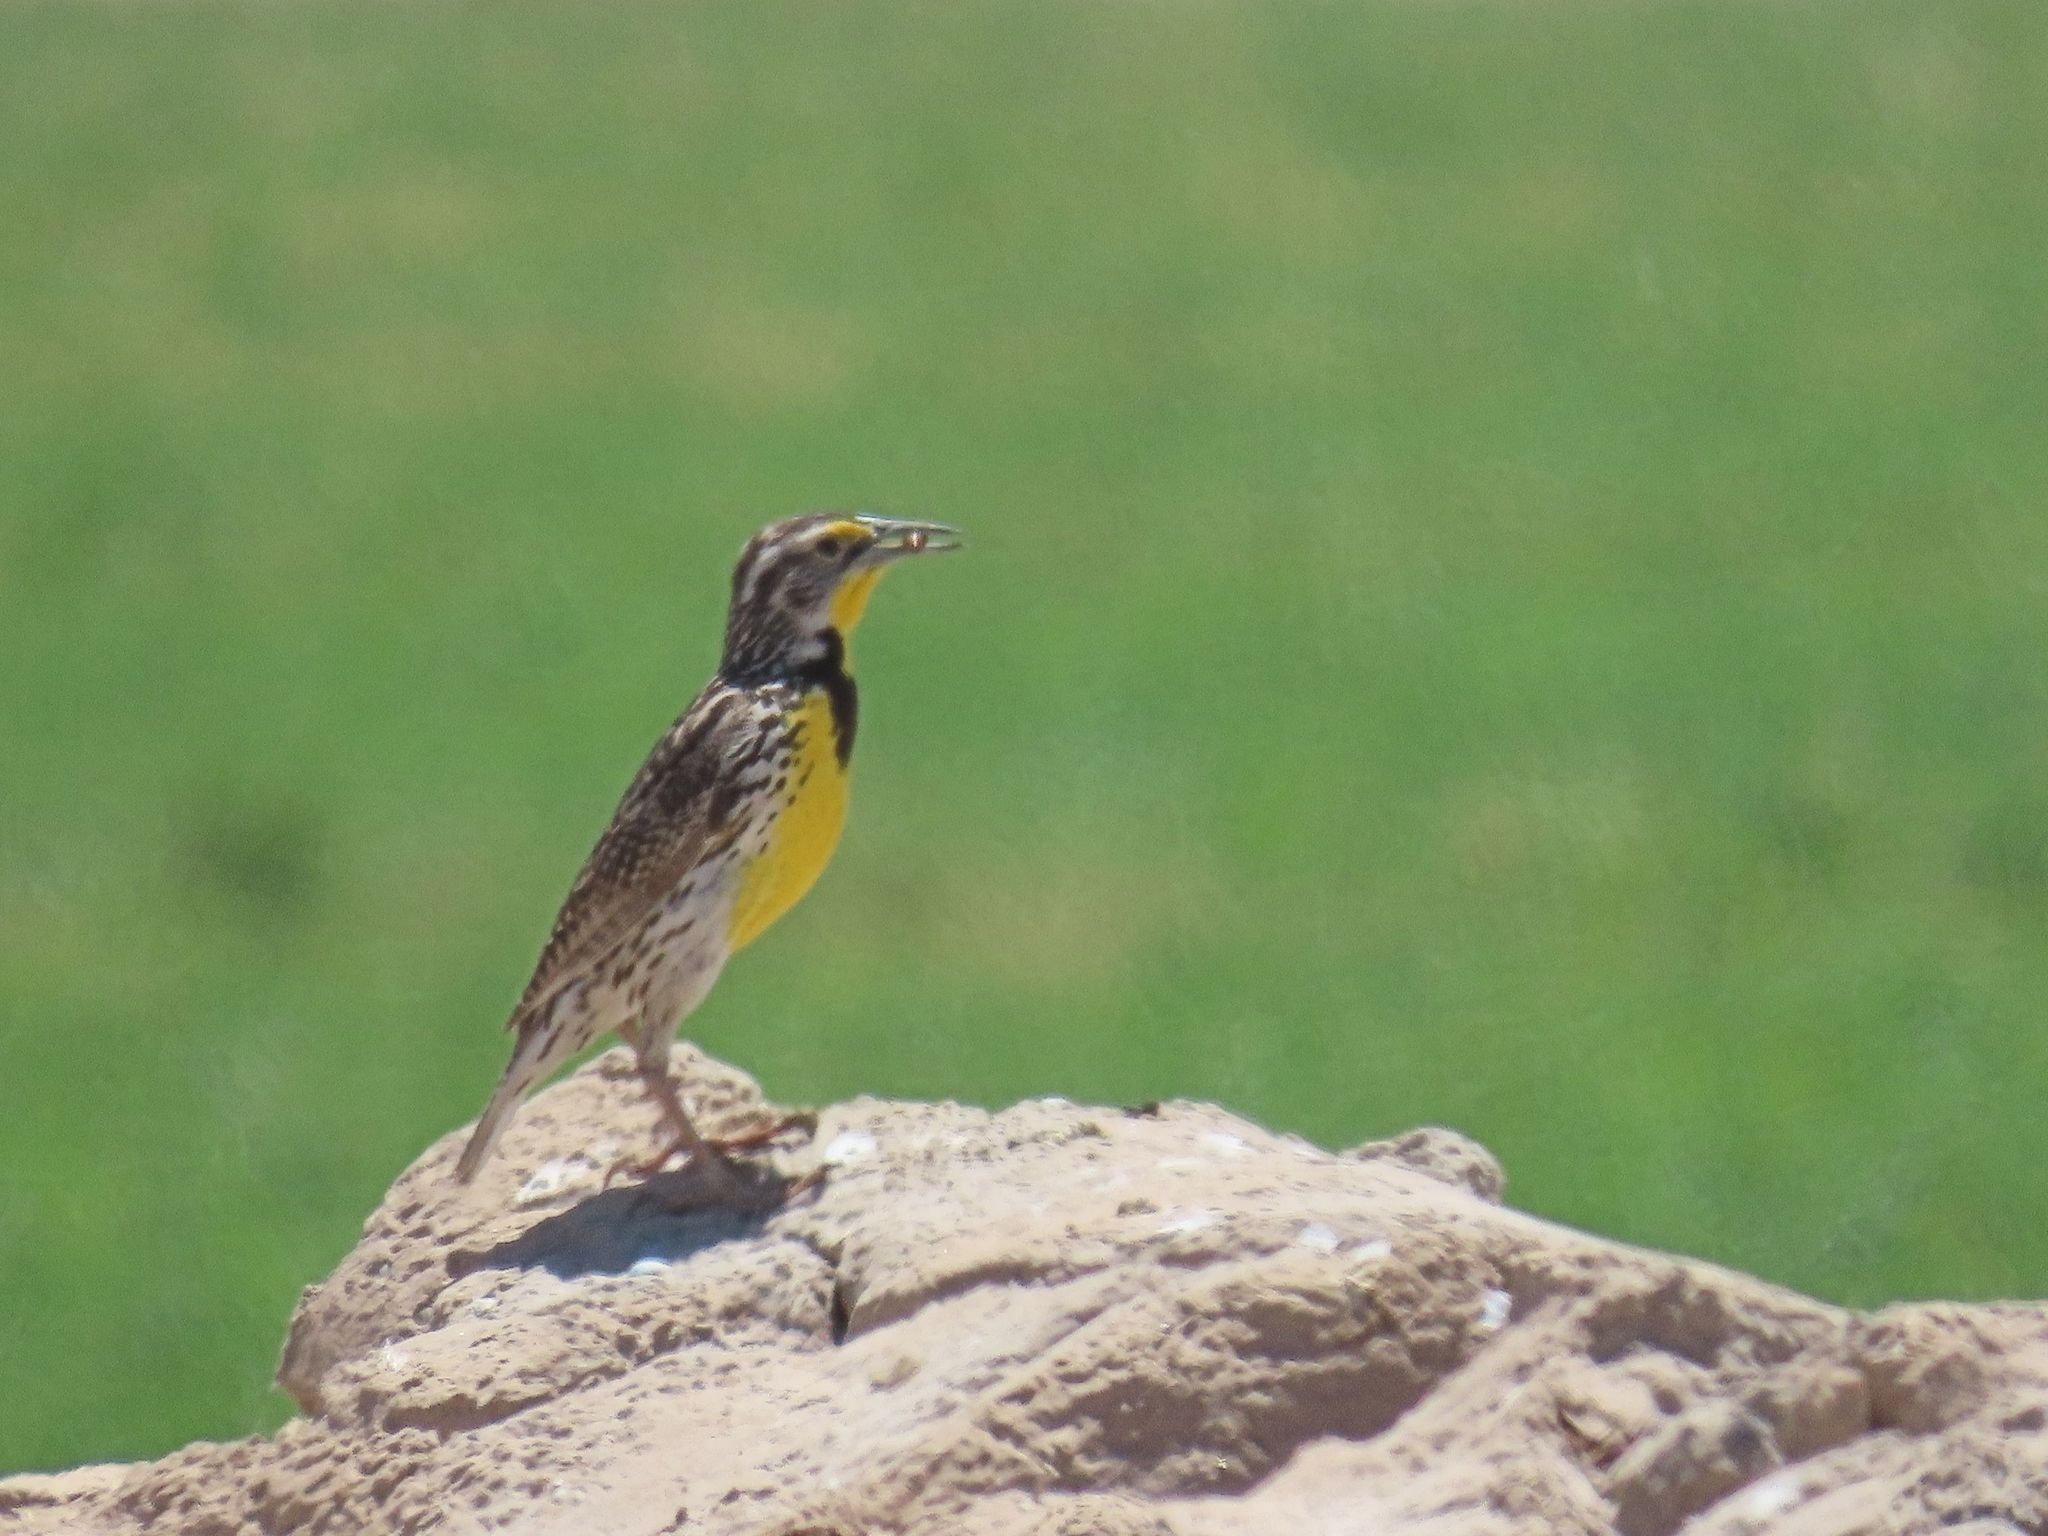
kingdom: Animalia
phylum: Chordata
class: Aves
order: Passeriformes
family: Icteridae
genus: Sturnella
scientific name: Sturnella neglecta
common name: Western meadowlark
